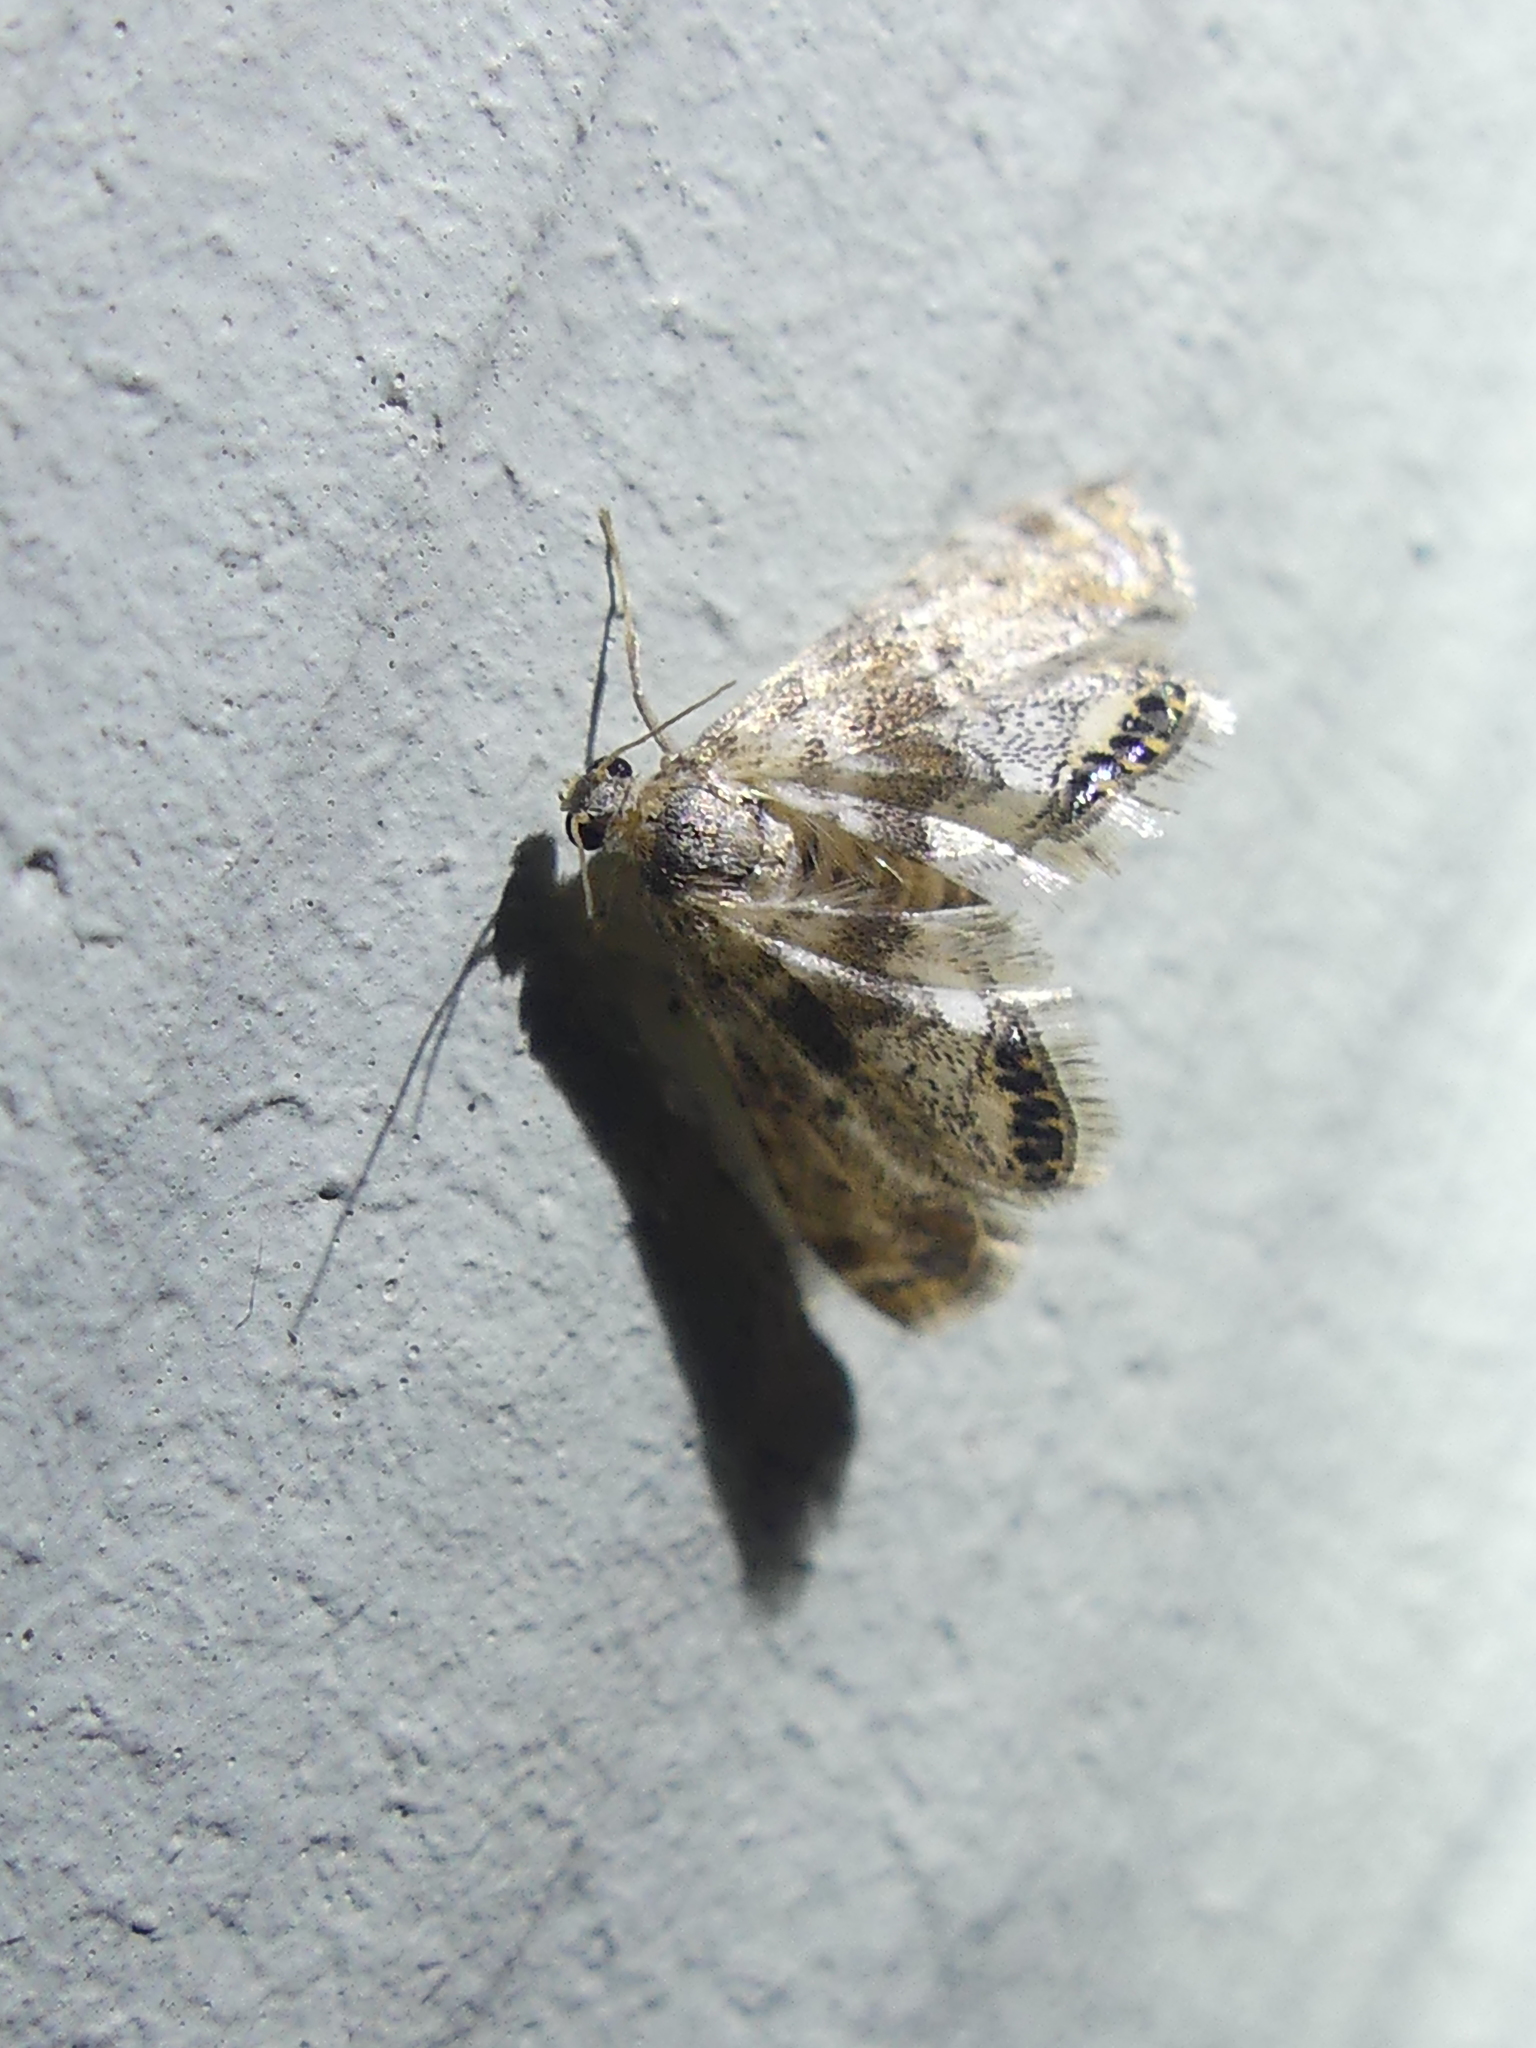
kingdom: Animalia
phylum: Arthropoda
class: Insecta
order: Lepidoptera
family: Crambidae
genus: Petrophila
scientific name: Petrophila fulicalis
